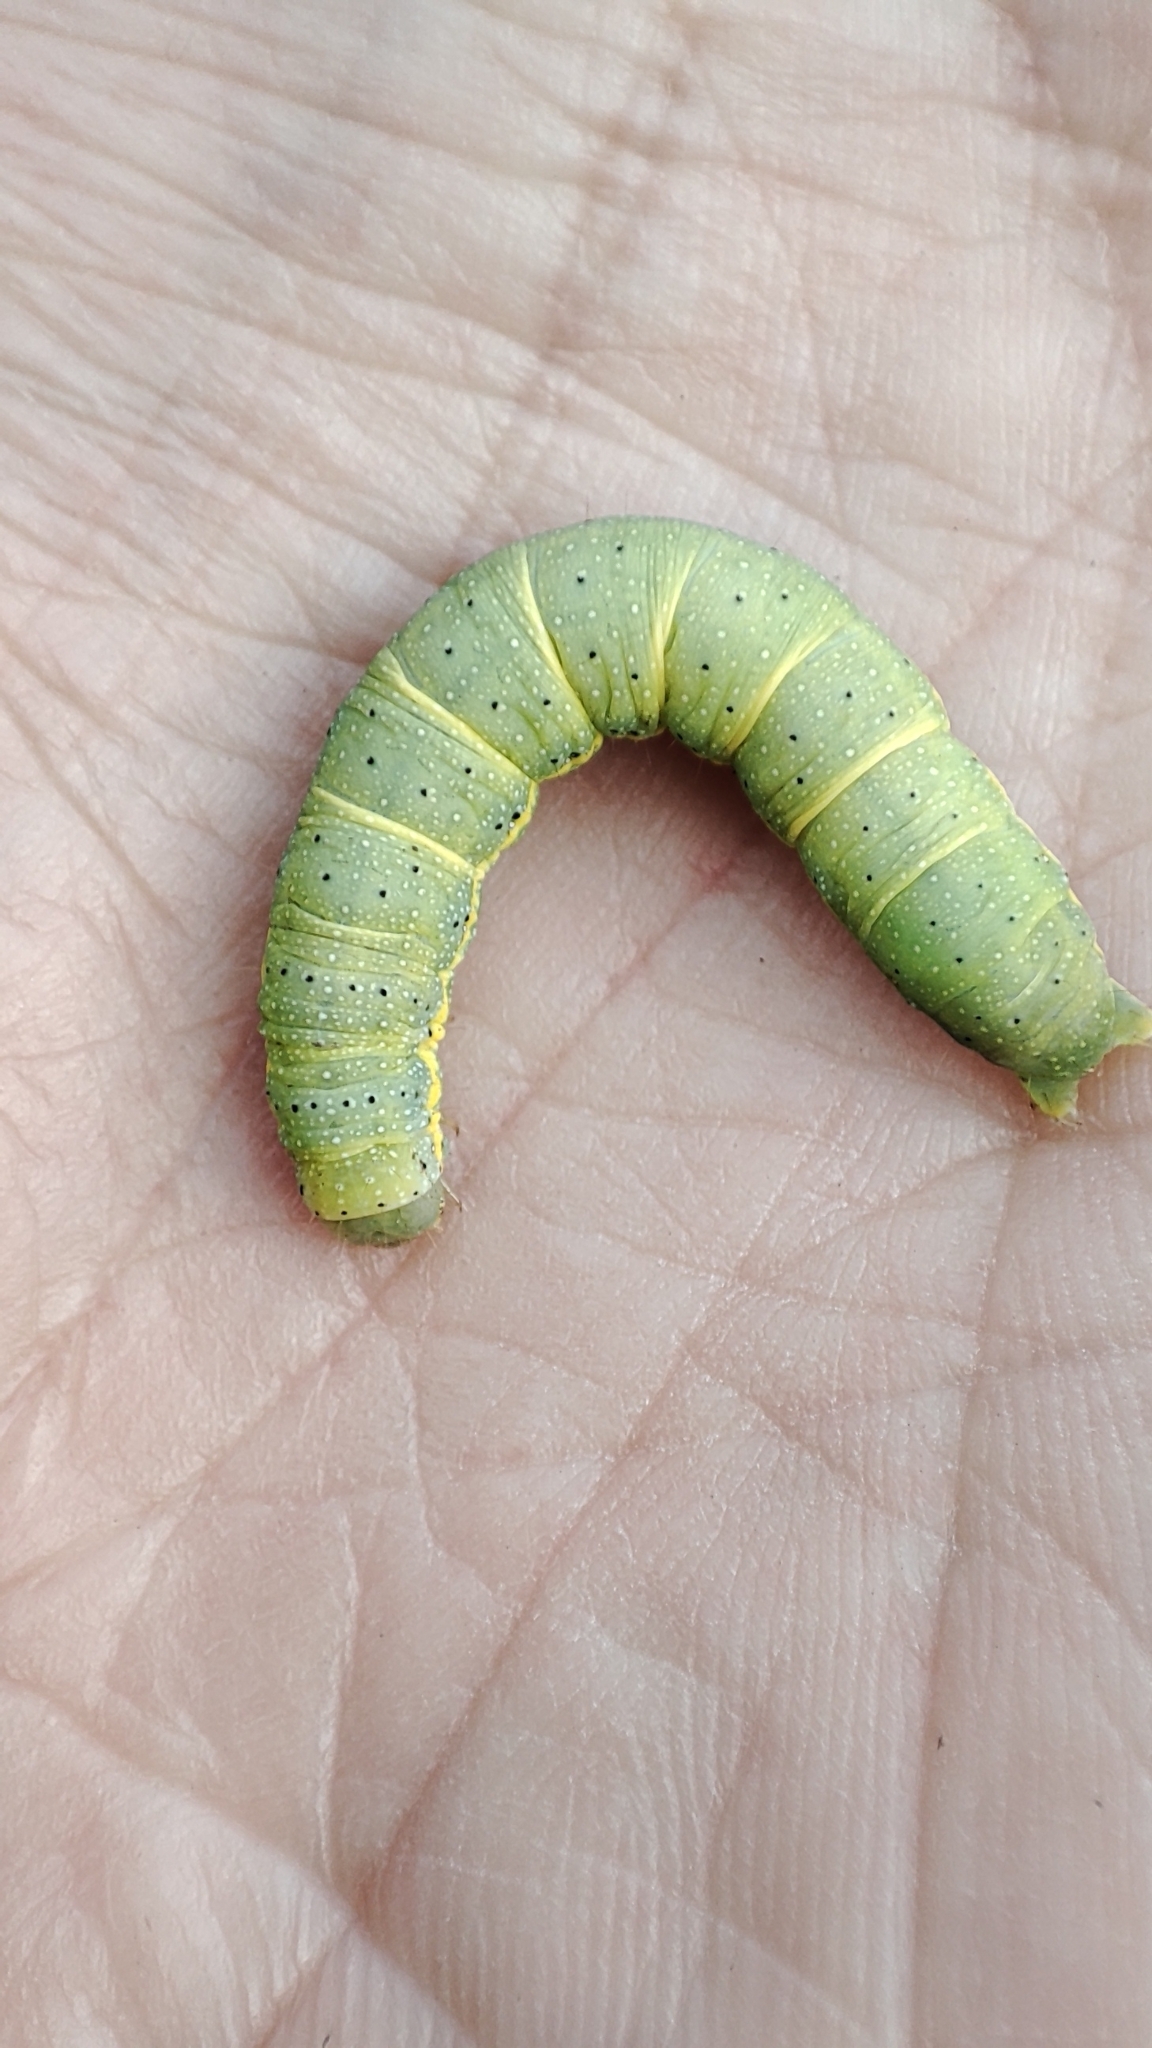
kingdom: Animalia
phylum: Arthropoda
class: Insecta
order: Lepidoptera
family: Noctuidae
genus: Lacanobia
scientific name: Lacanobia oleracea
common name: Bright-line brown-eye
